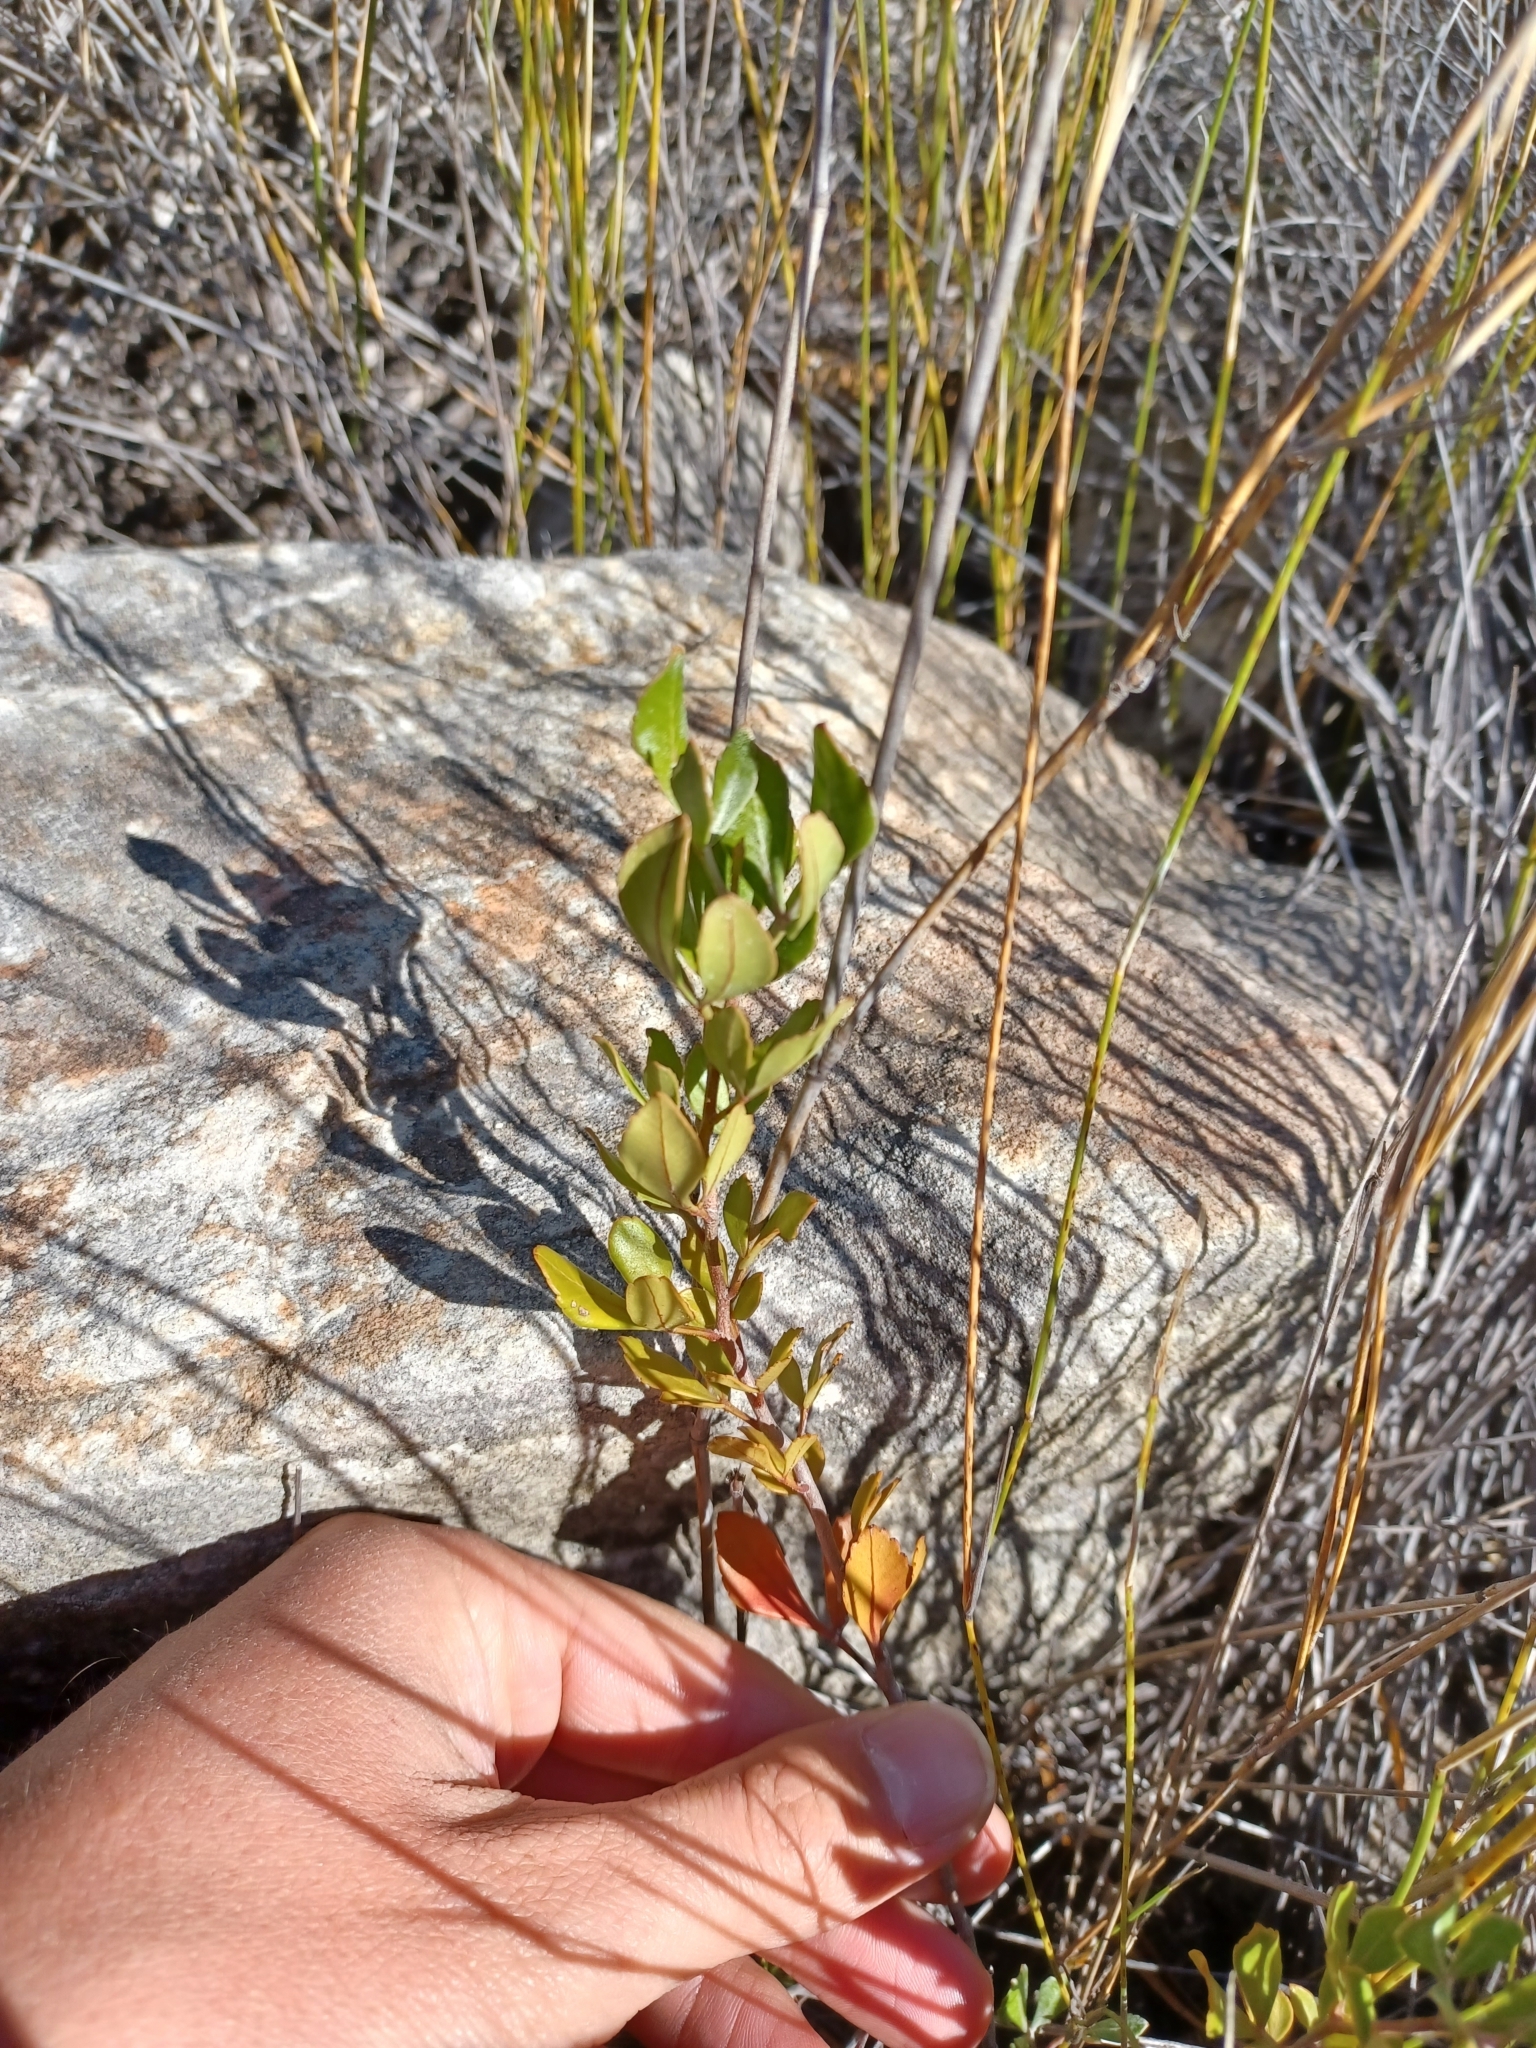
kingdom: Plantae
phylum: Tracheophyta
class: Magnoliopsida
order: Sapindales
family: Anacardiaceae
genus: Searsia
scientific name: Searsia scytophylla
